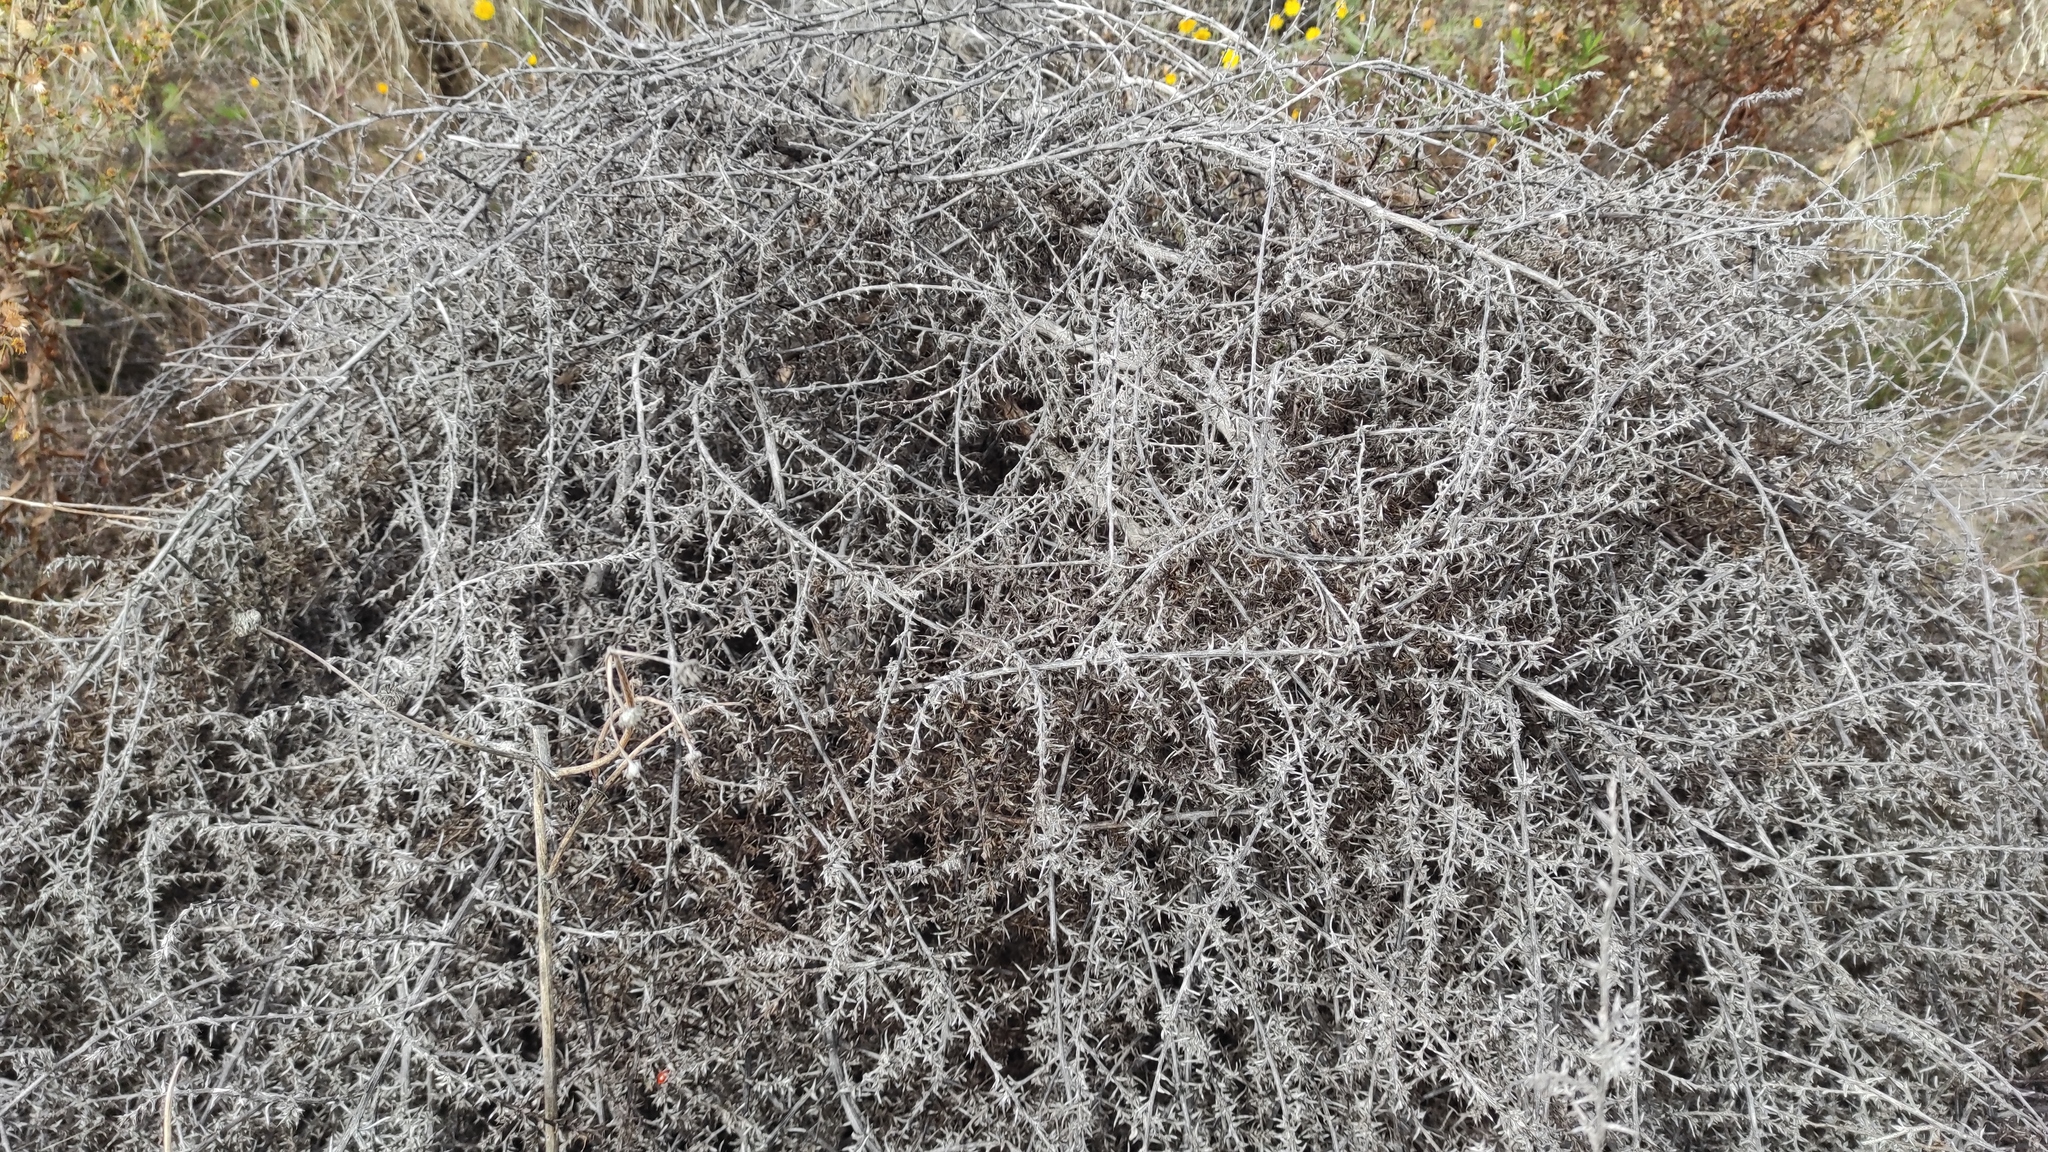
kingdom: Plantae
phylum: Tracheophyta
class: Magnoliopsida
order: Caryophyllales
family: Amaranthaceae
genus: Salsola
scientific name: Salsola tragus
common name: Prickly russian thistle
